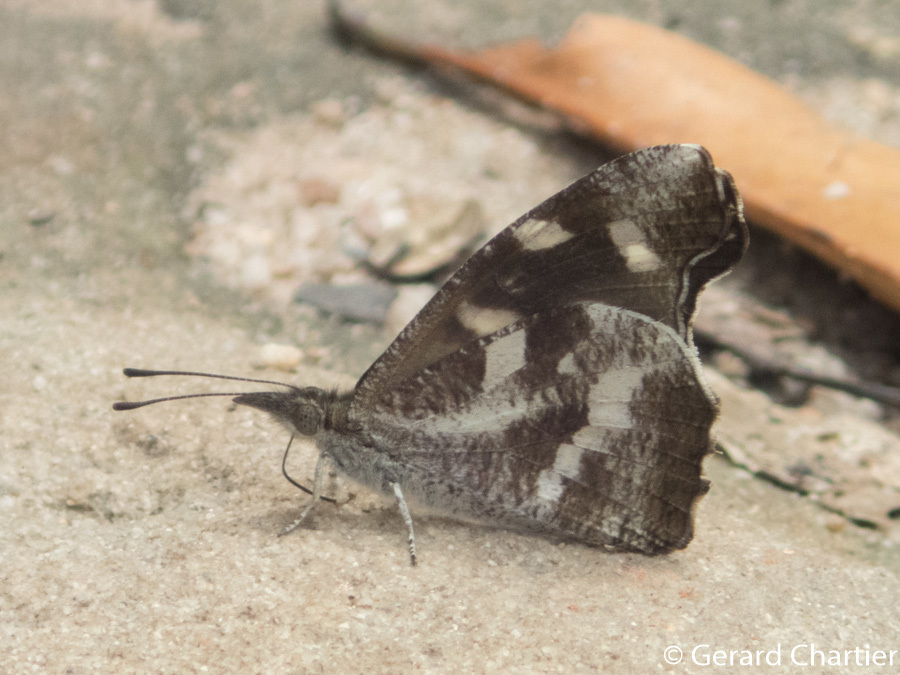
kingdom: Animalia
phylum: Arthropoda
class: Insecta
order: Lepidoptera
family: Nymphalidae
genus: Libythea
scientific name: Libythea narina
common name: Whitespotted beak
